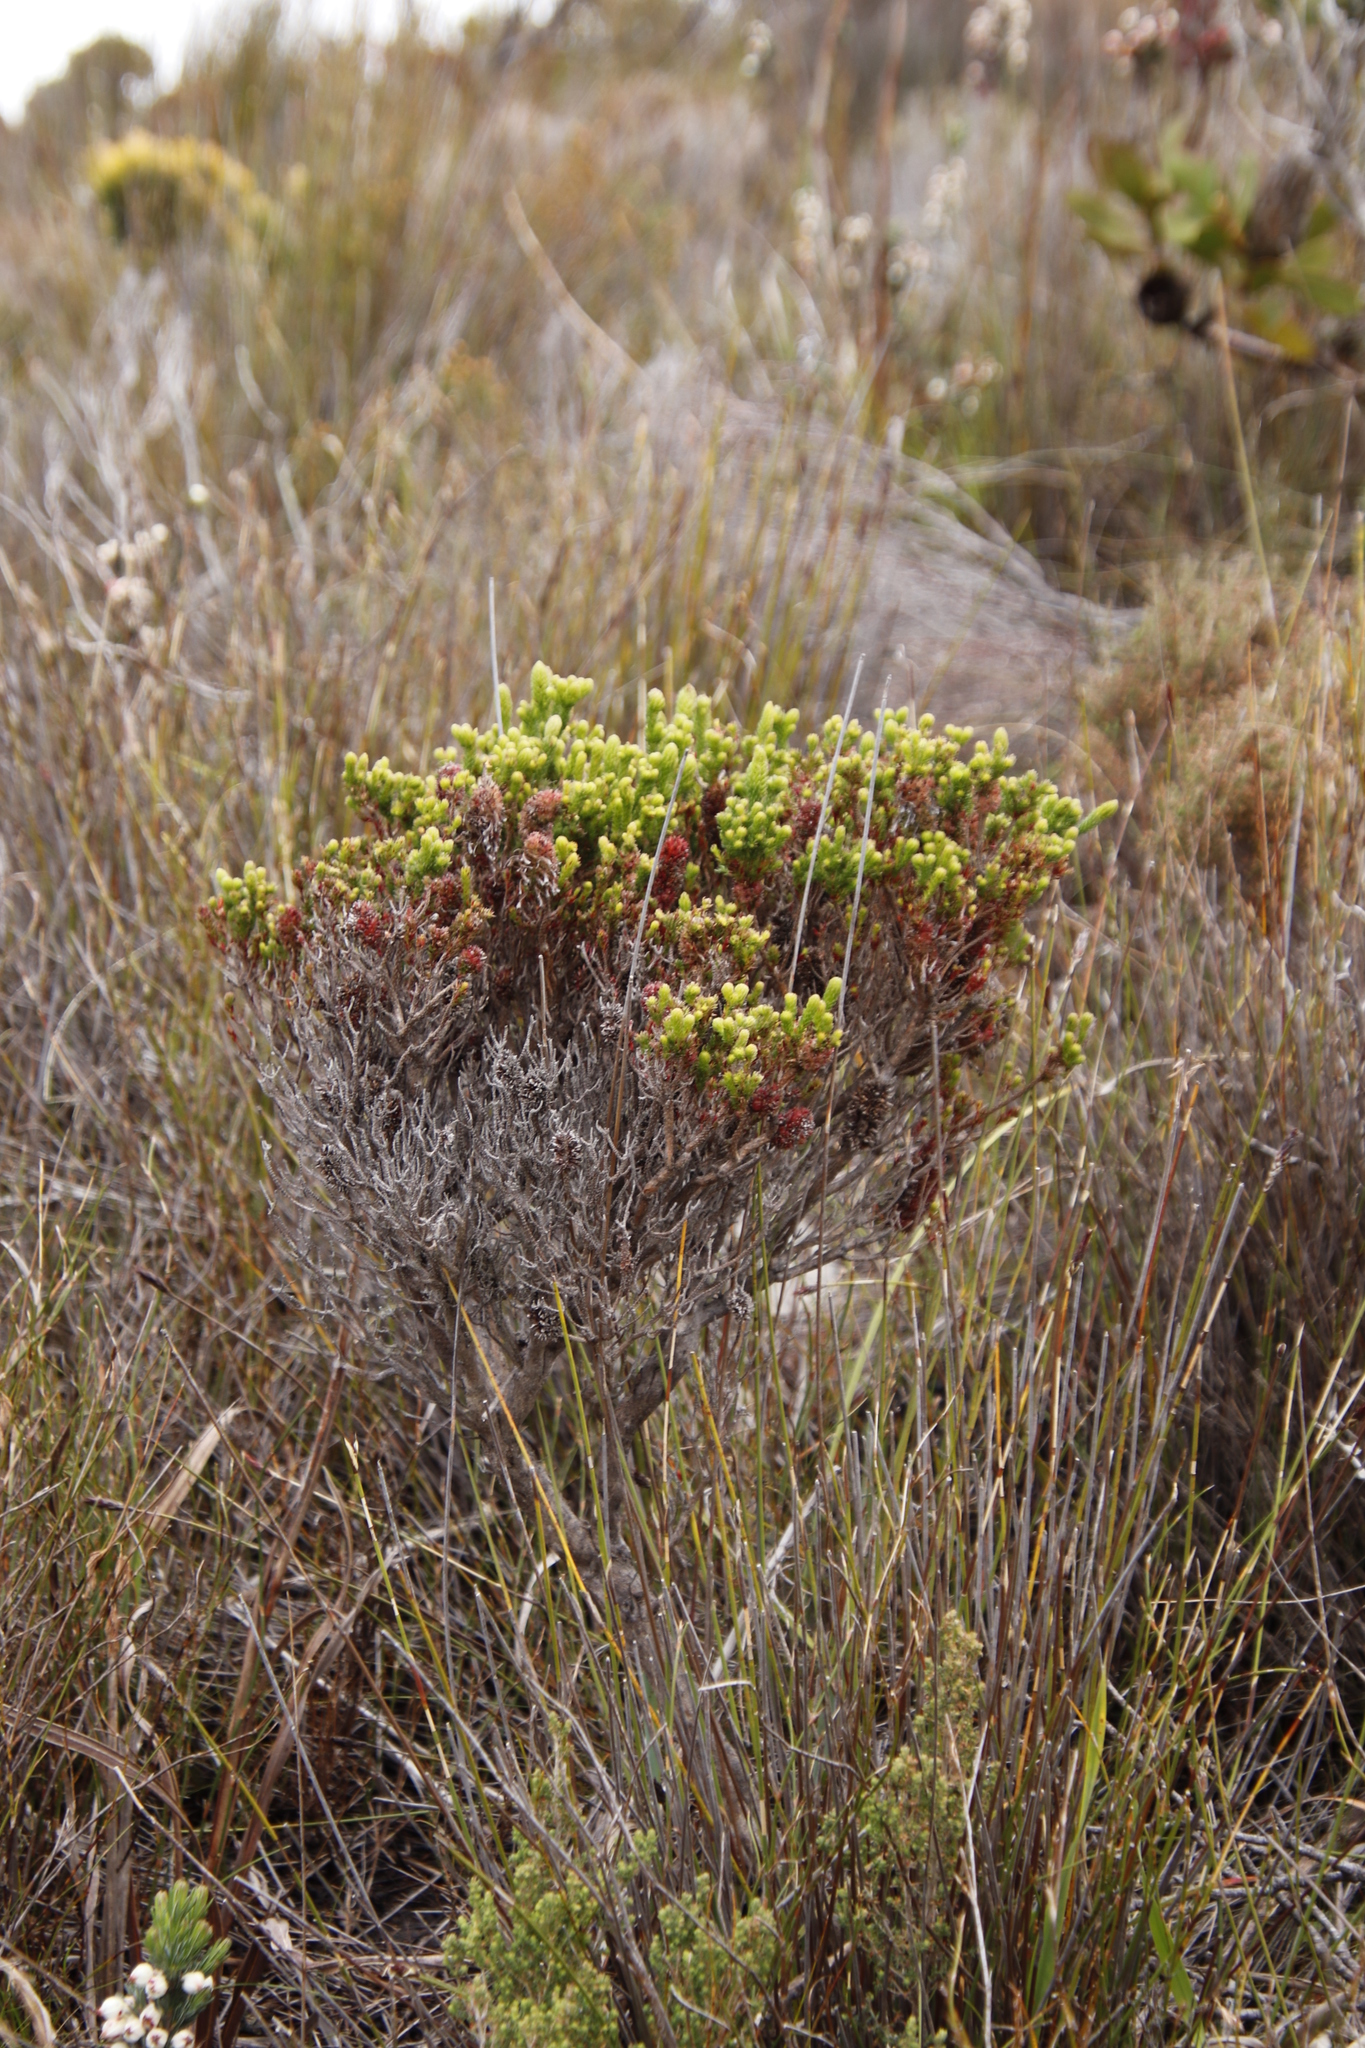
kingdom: Plantae
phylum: Tracheophyta
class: Magnoliopsida
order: Ericales
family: Ericaceae
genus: Erica
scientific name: Erica sessiliflora
